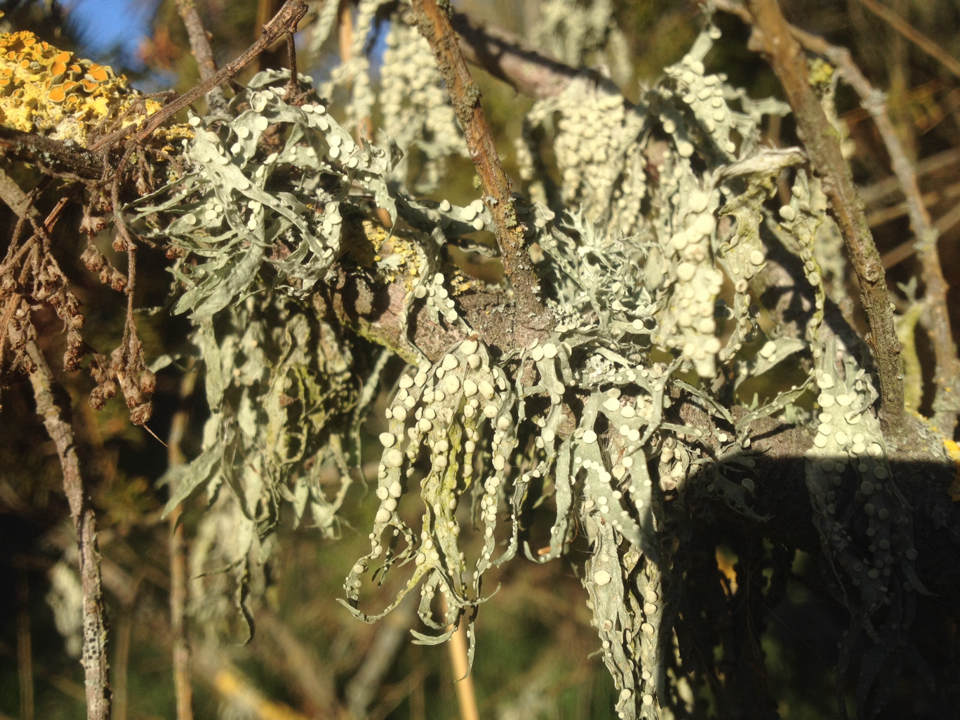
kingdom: Fungi
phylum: Ascomycota
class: Lecanoromycetes
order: Lecanorales
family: Ramalinaceae
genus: Ramalina
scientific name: Ramalina celastri
